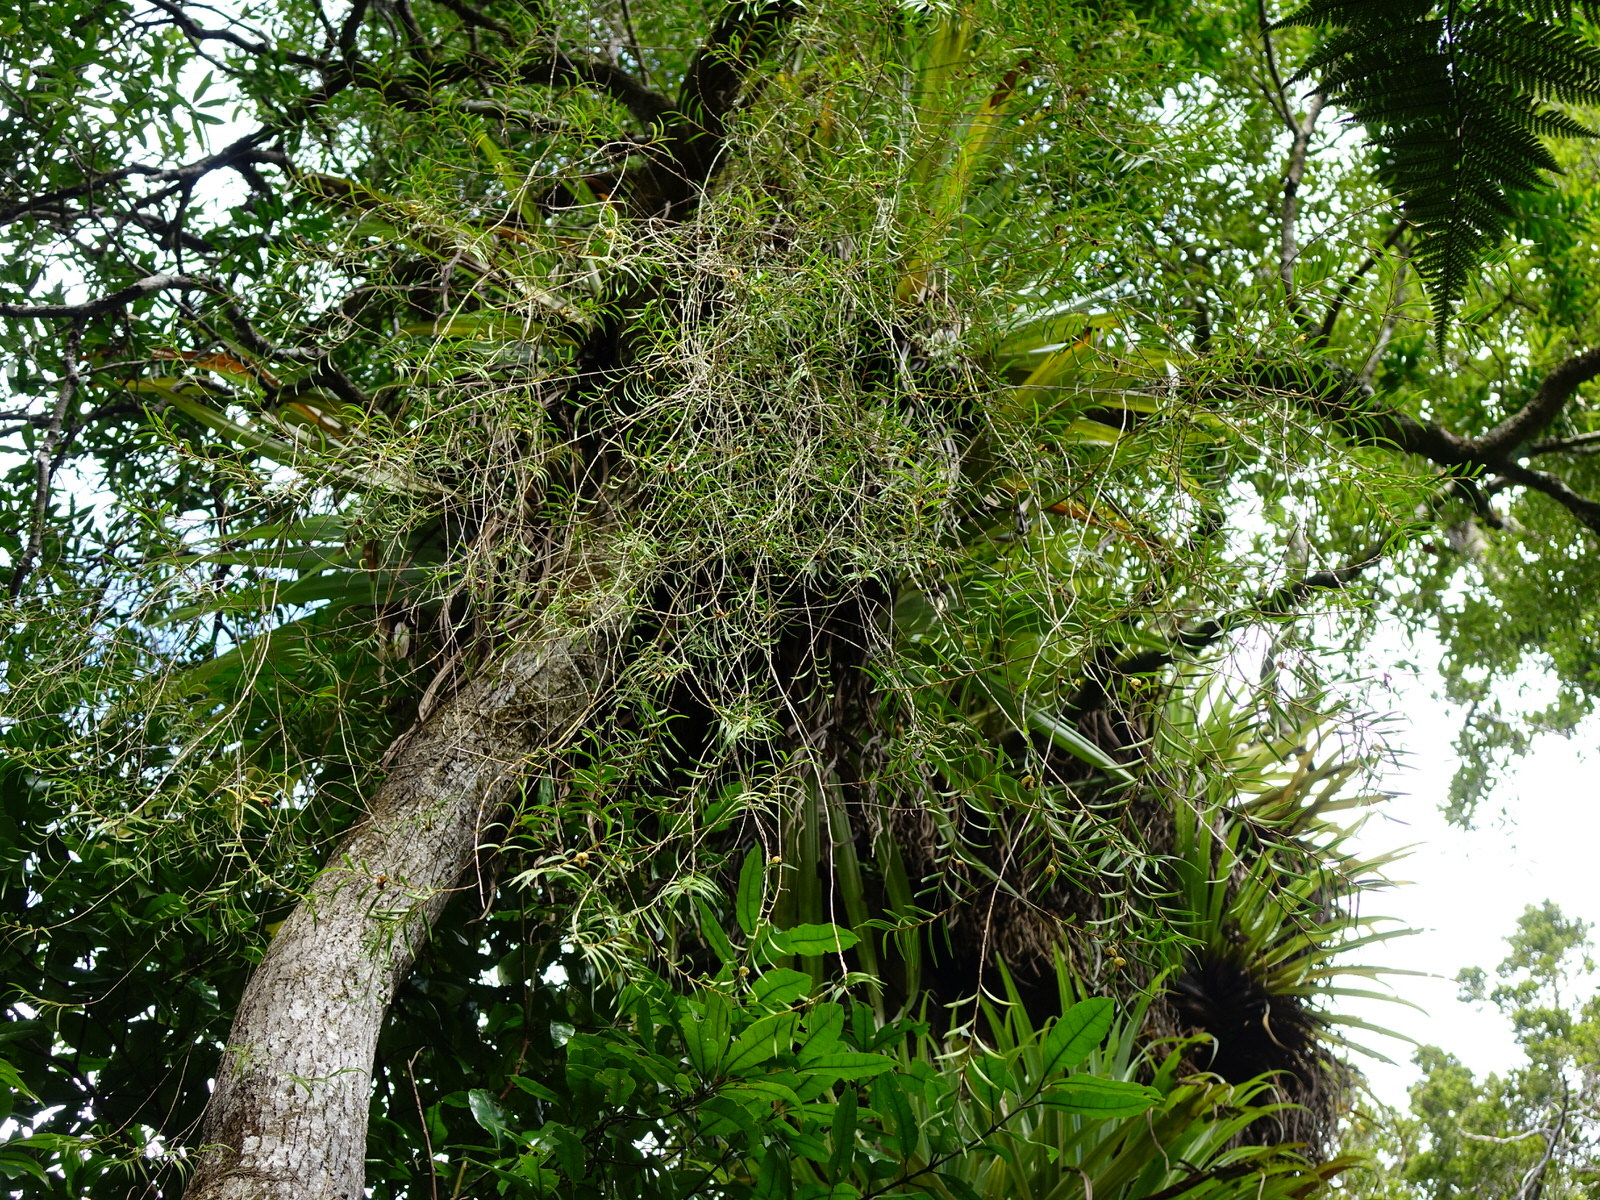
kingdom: Plantae
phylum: Tracheophyta
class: Liliopsida
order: Asparagales
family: Orchidaceae
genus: Dendrobium
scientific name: Dendrobium cunninghamii
